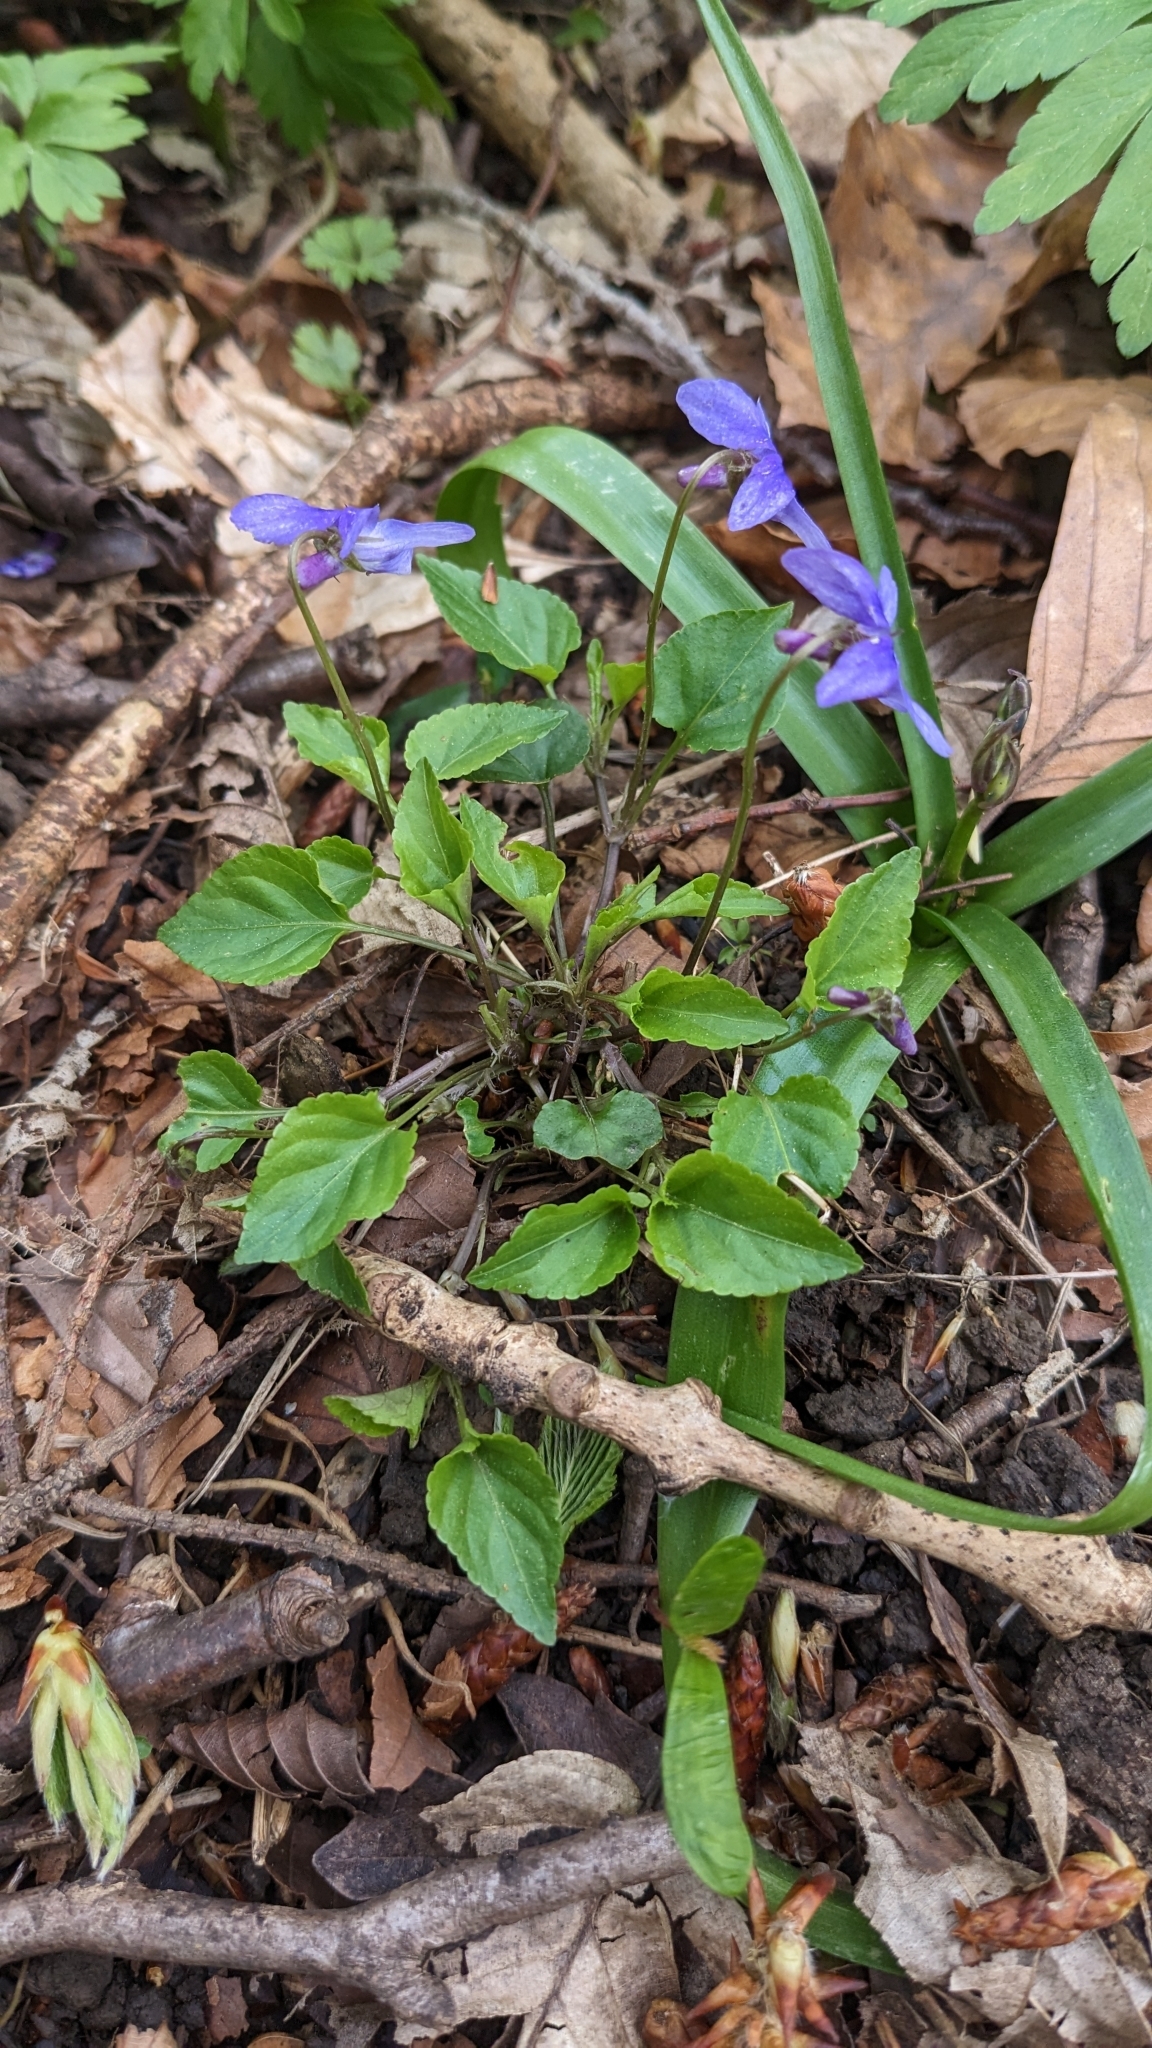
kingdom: Plantae
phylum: Tracheophyta
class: Magnoliopsida
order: Malpighiales
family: Violaceae
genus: Viola
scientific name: Viola reichenbachiana
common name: Early dog-violet
